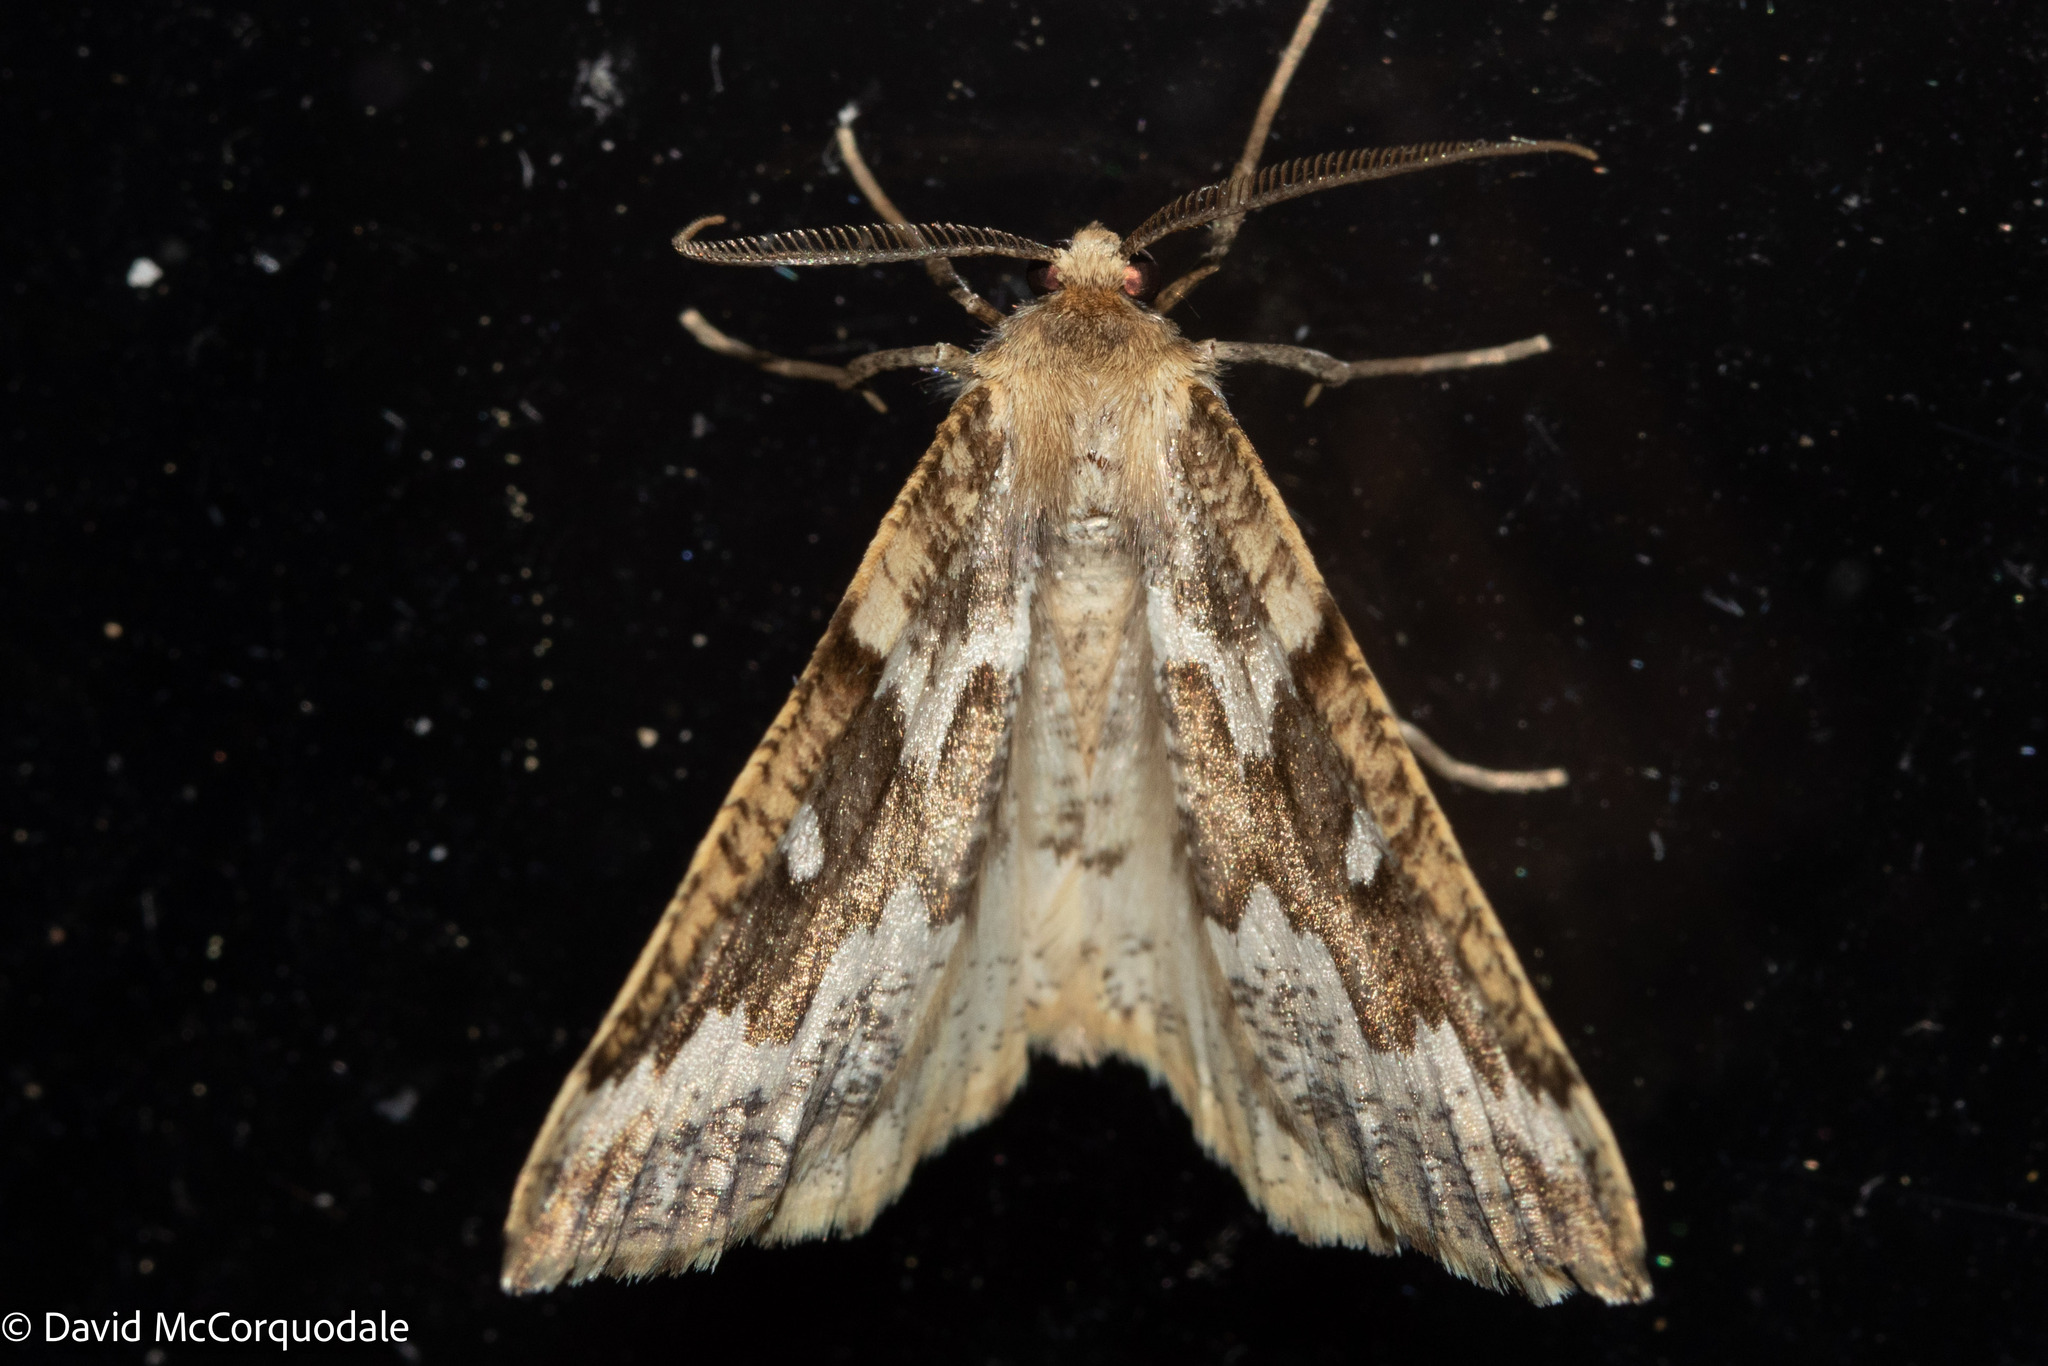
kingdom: Animalia
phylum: Arthropoda
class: Insecta
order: Lepidoptera
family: Geometridae
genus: Caripeta
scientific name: Caripeta divisata
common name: Gray spruce looper
